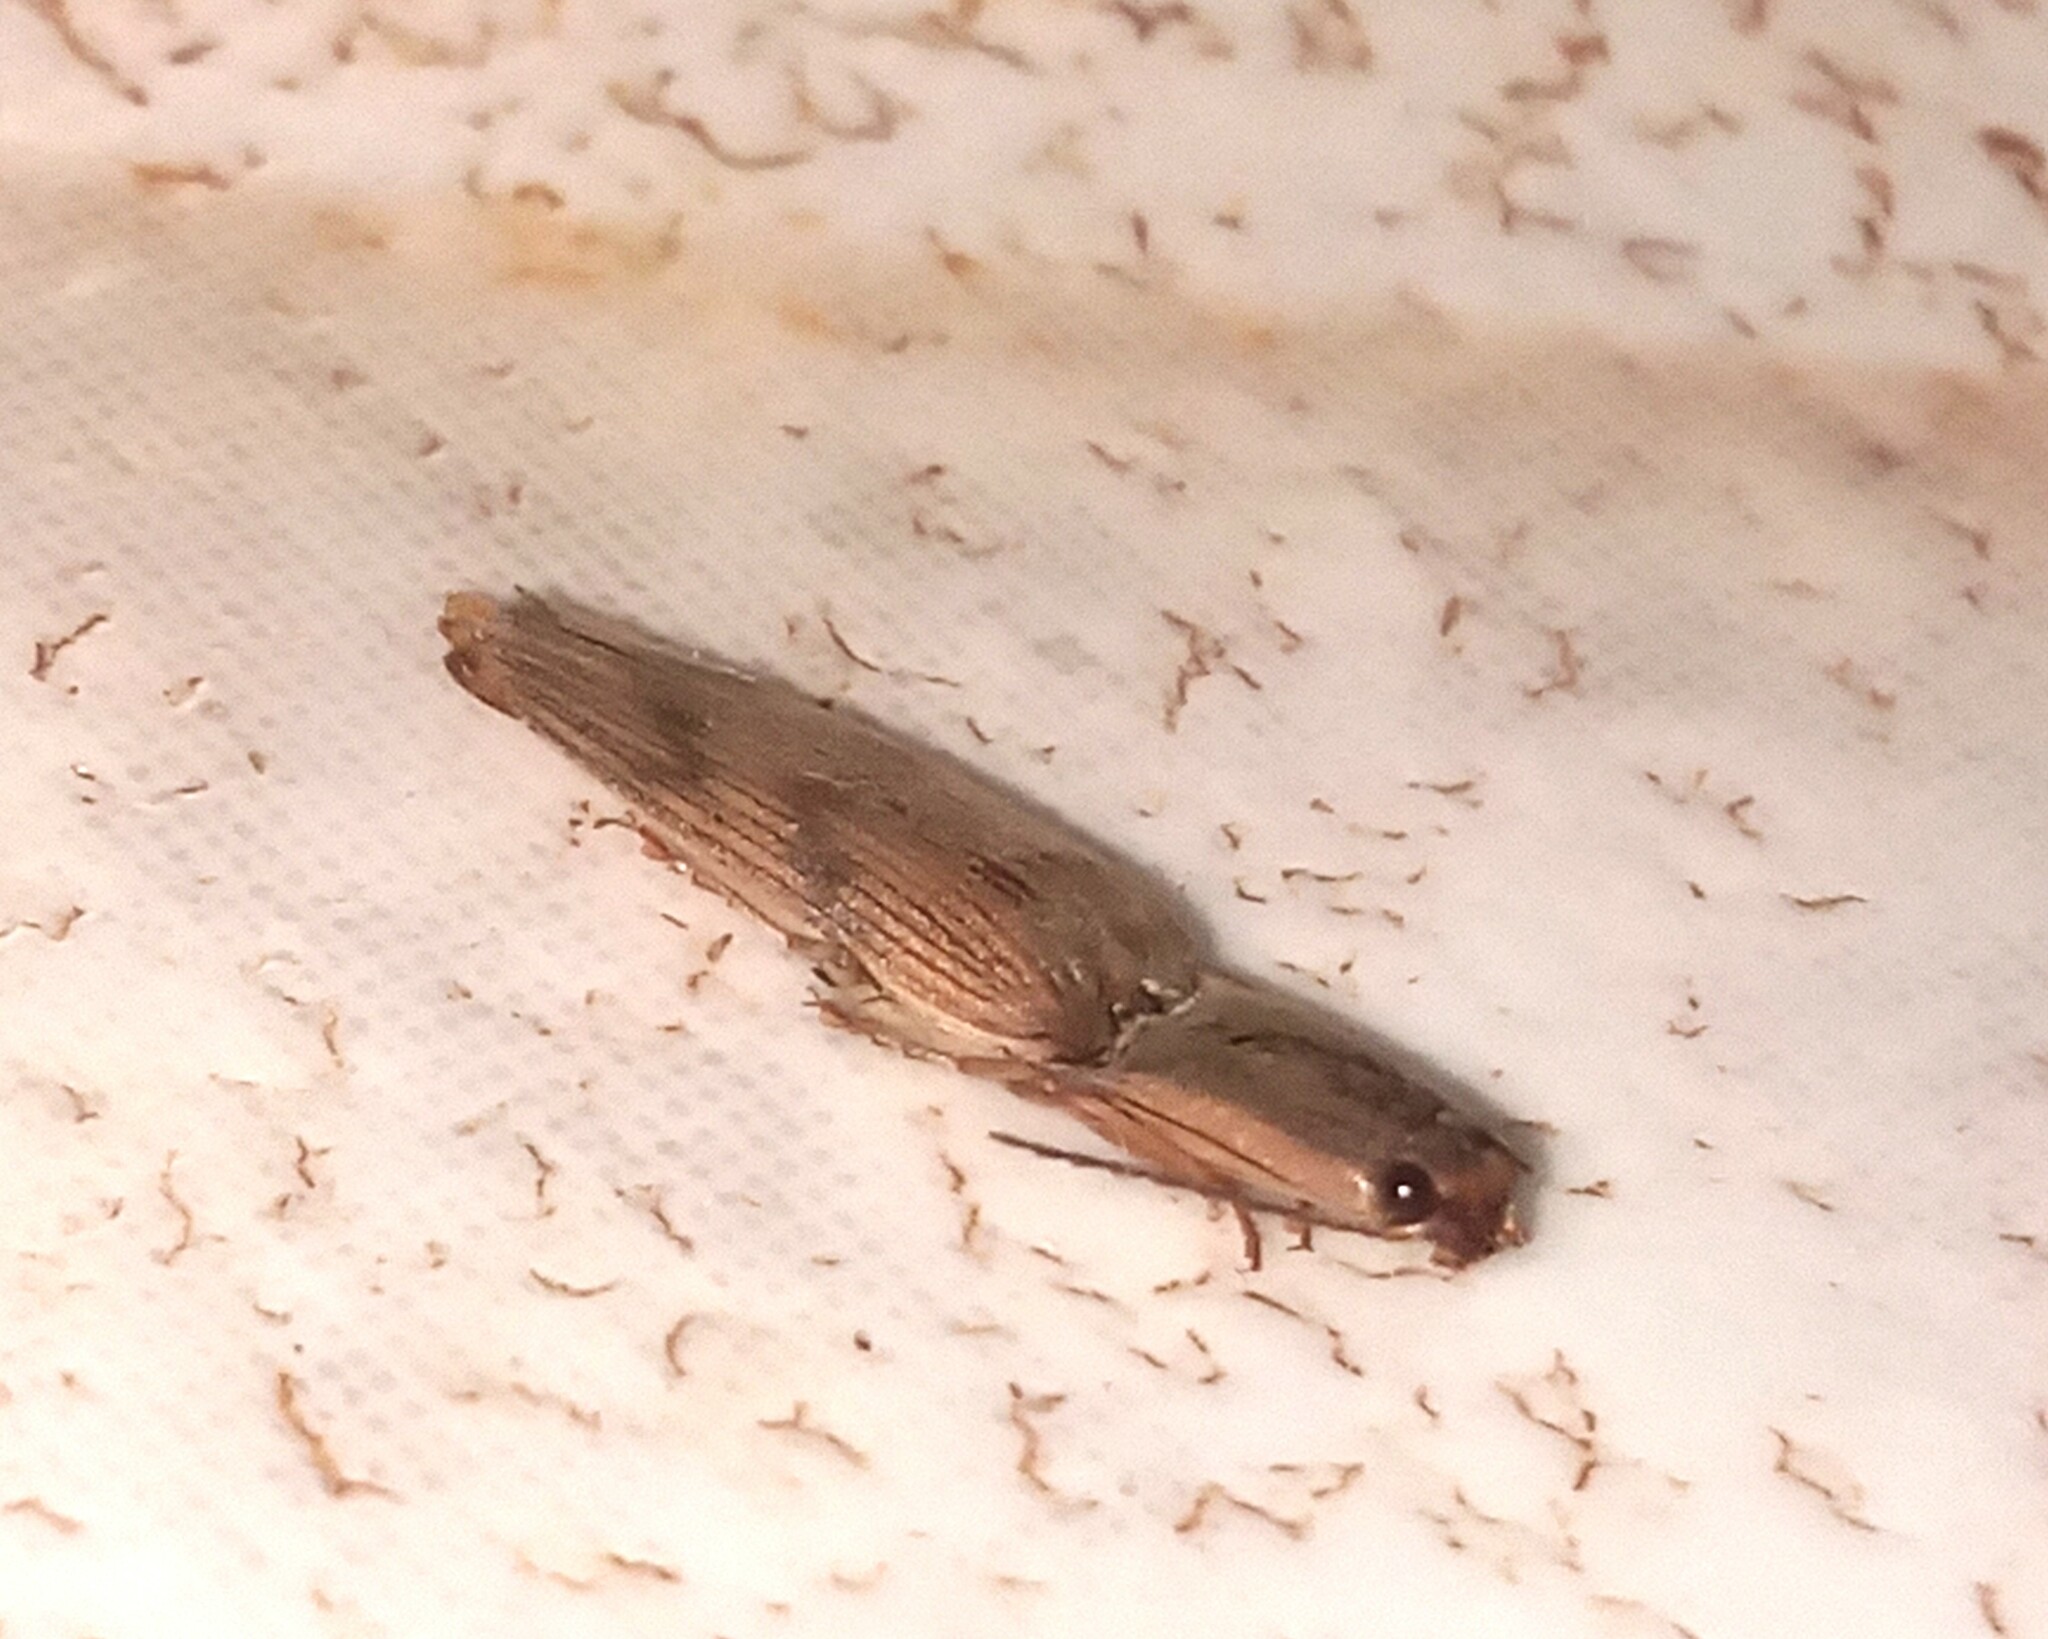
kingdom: Animalia
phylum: Arthropoda
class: Insecta
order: Coleoptera
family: Elateridae
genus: Monocrepidius
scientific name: Monocrepidius
